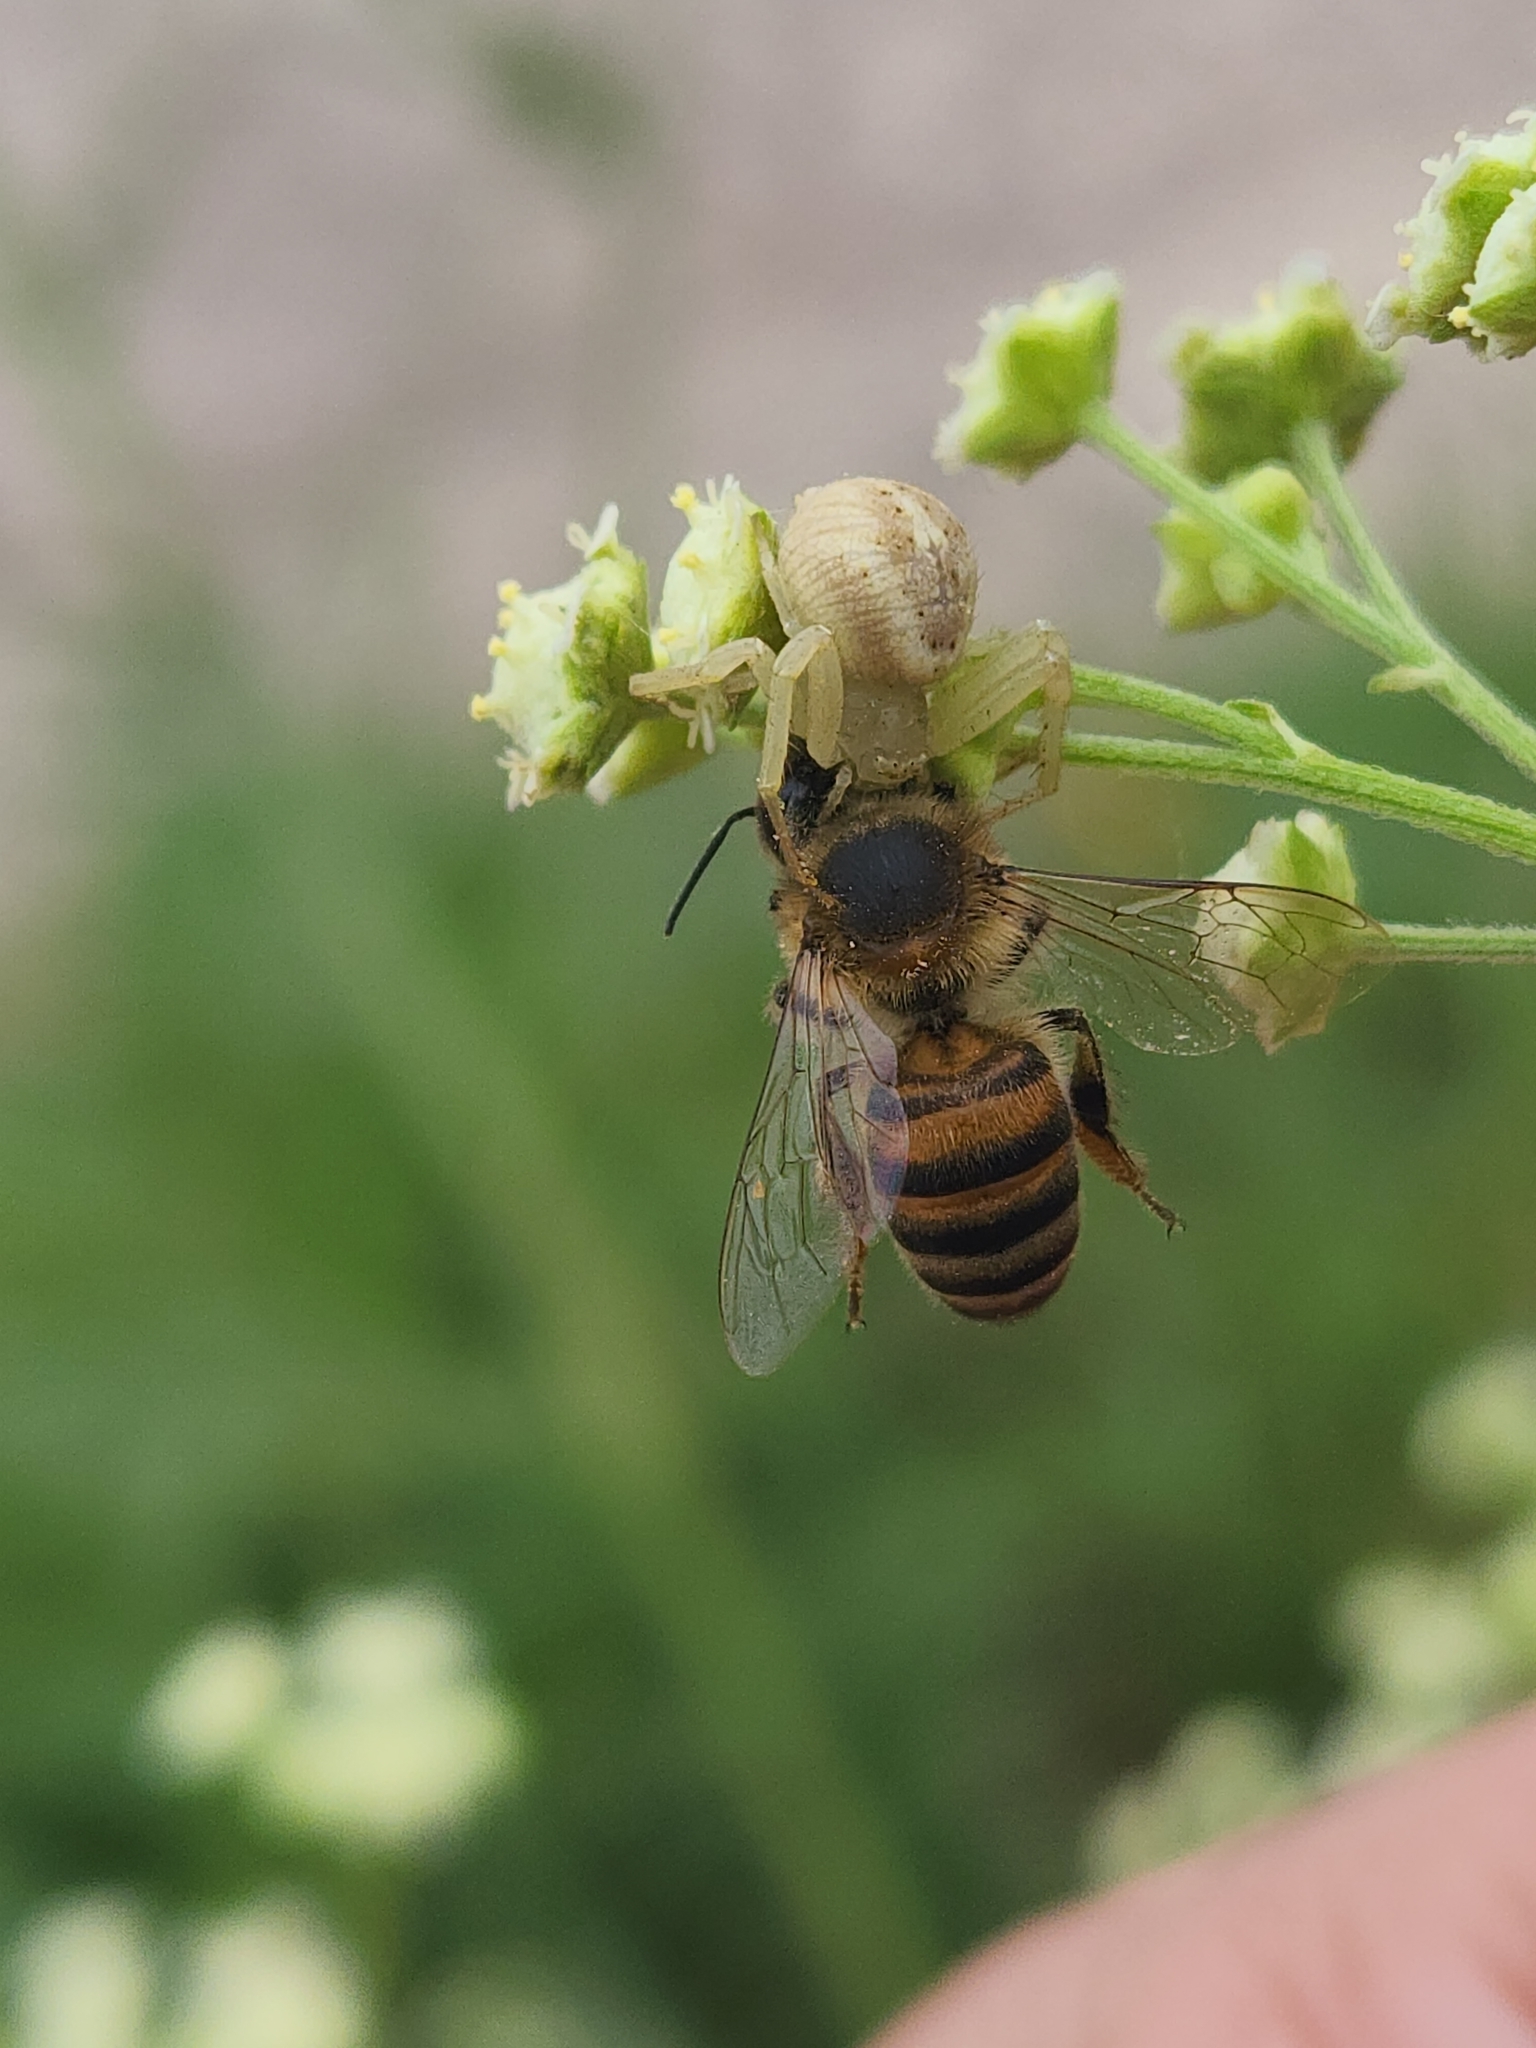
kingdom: Animalia
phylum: Arthropoda
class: Arachnida
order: Araneae
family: Thomisidae
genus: Misumenops
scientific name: Misumenops
